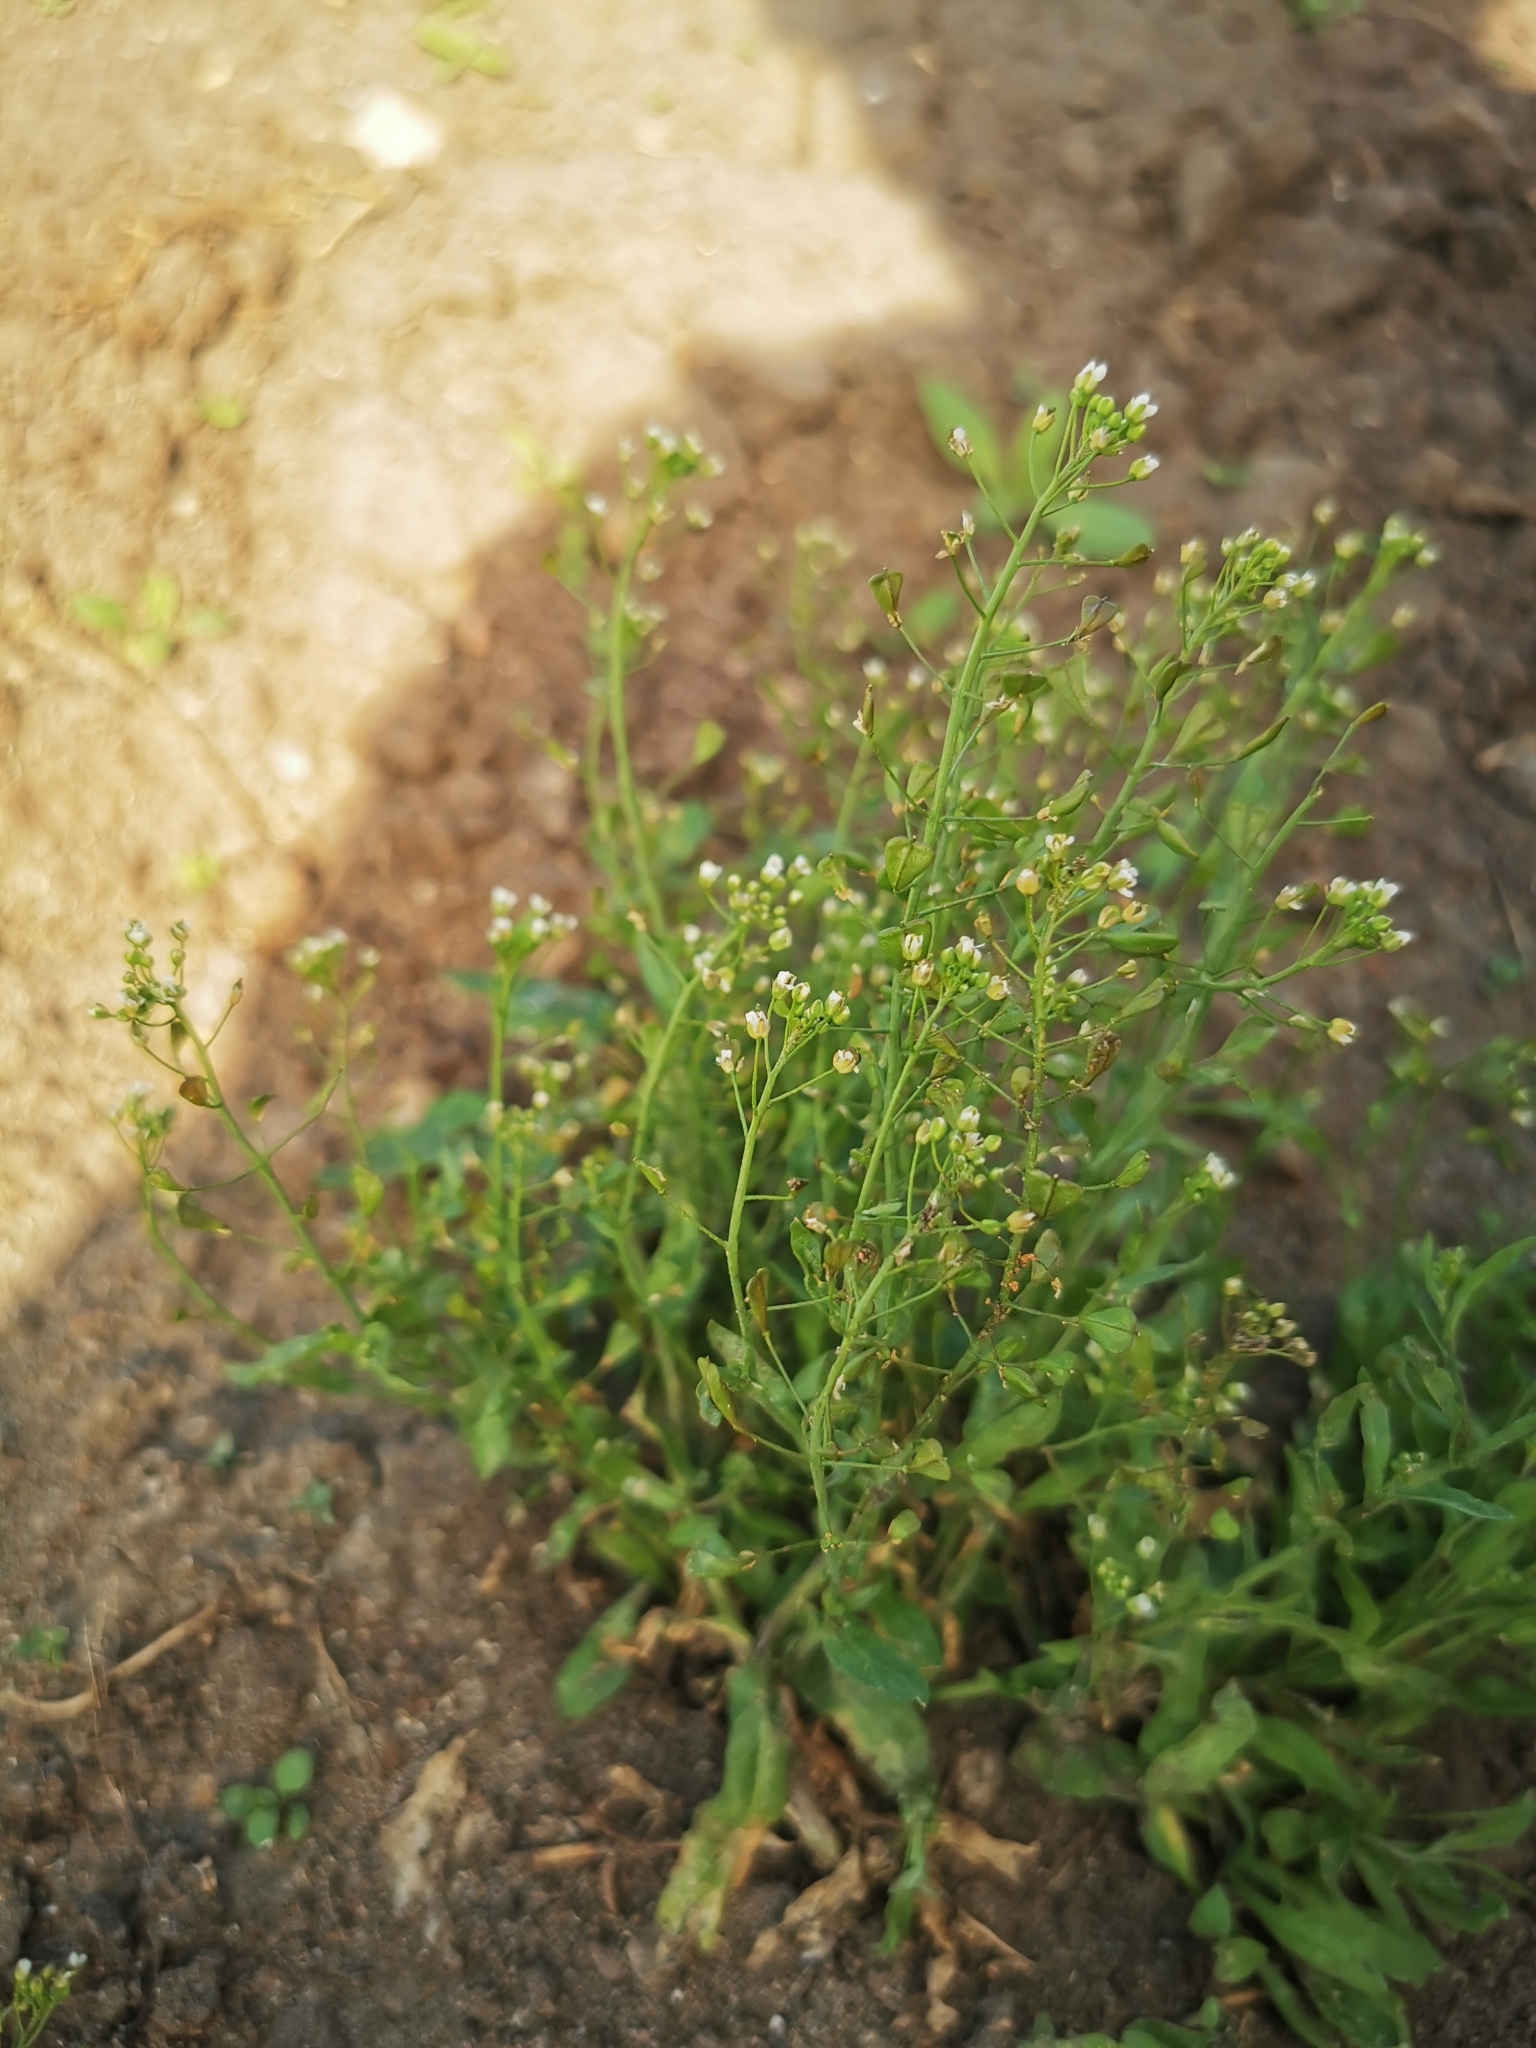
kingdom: Plantae
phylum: Tracheophyta
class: Magnoliopsida
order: Brassicales
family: Brassicaceae
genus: Capsella
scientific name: Capsella bursa-pastoris
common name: Shepherd's purse
